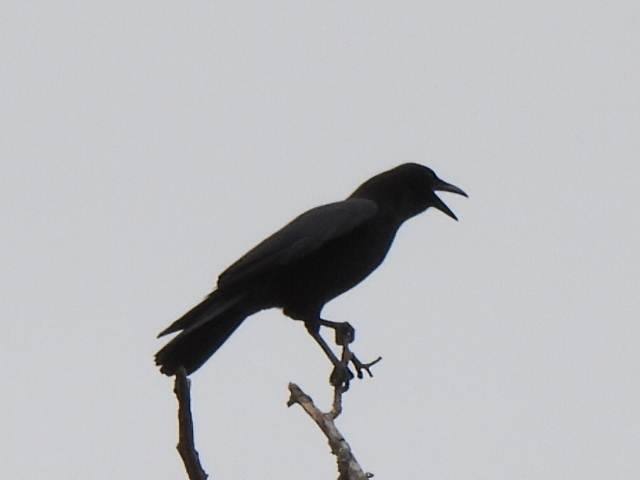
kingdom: Animalia
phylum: Chordata
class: Aves
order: Passeriformes
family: Corvidae
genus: Corvus
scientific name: Corvus brachyrhynchos
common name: American crow
